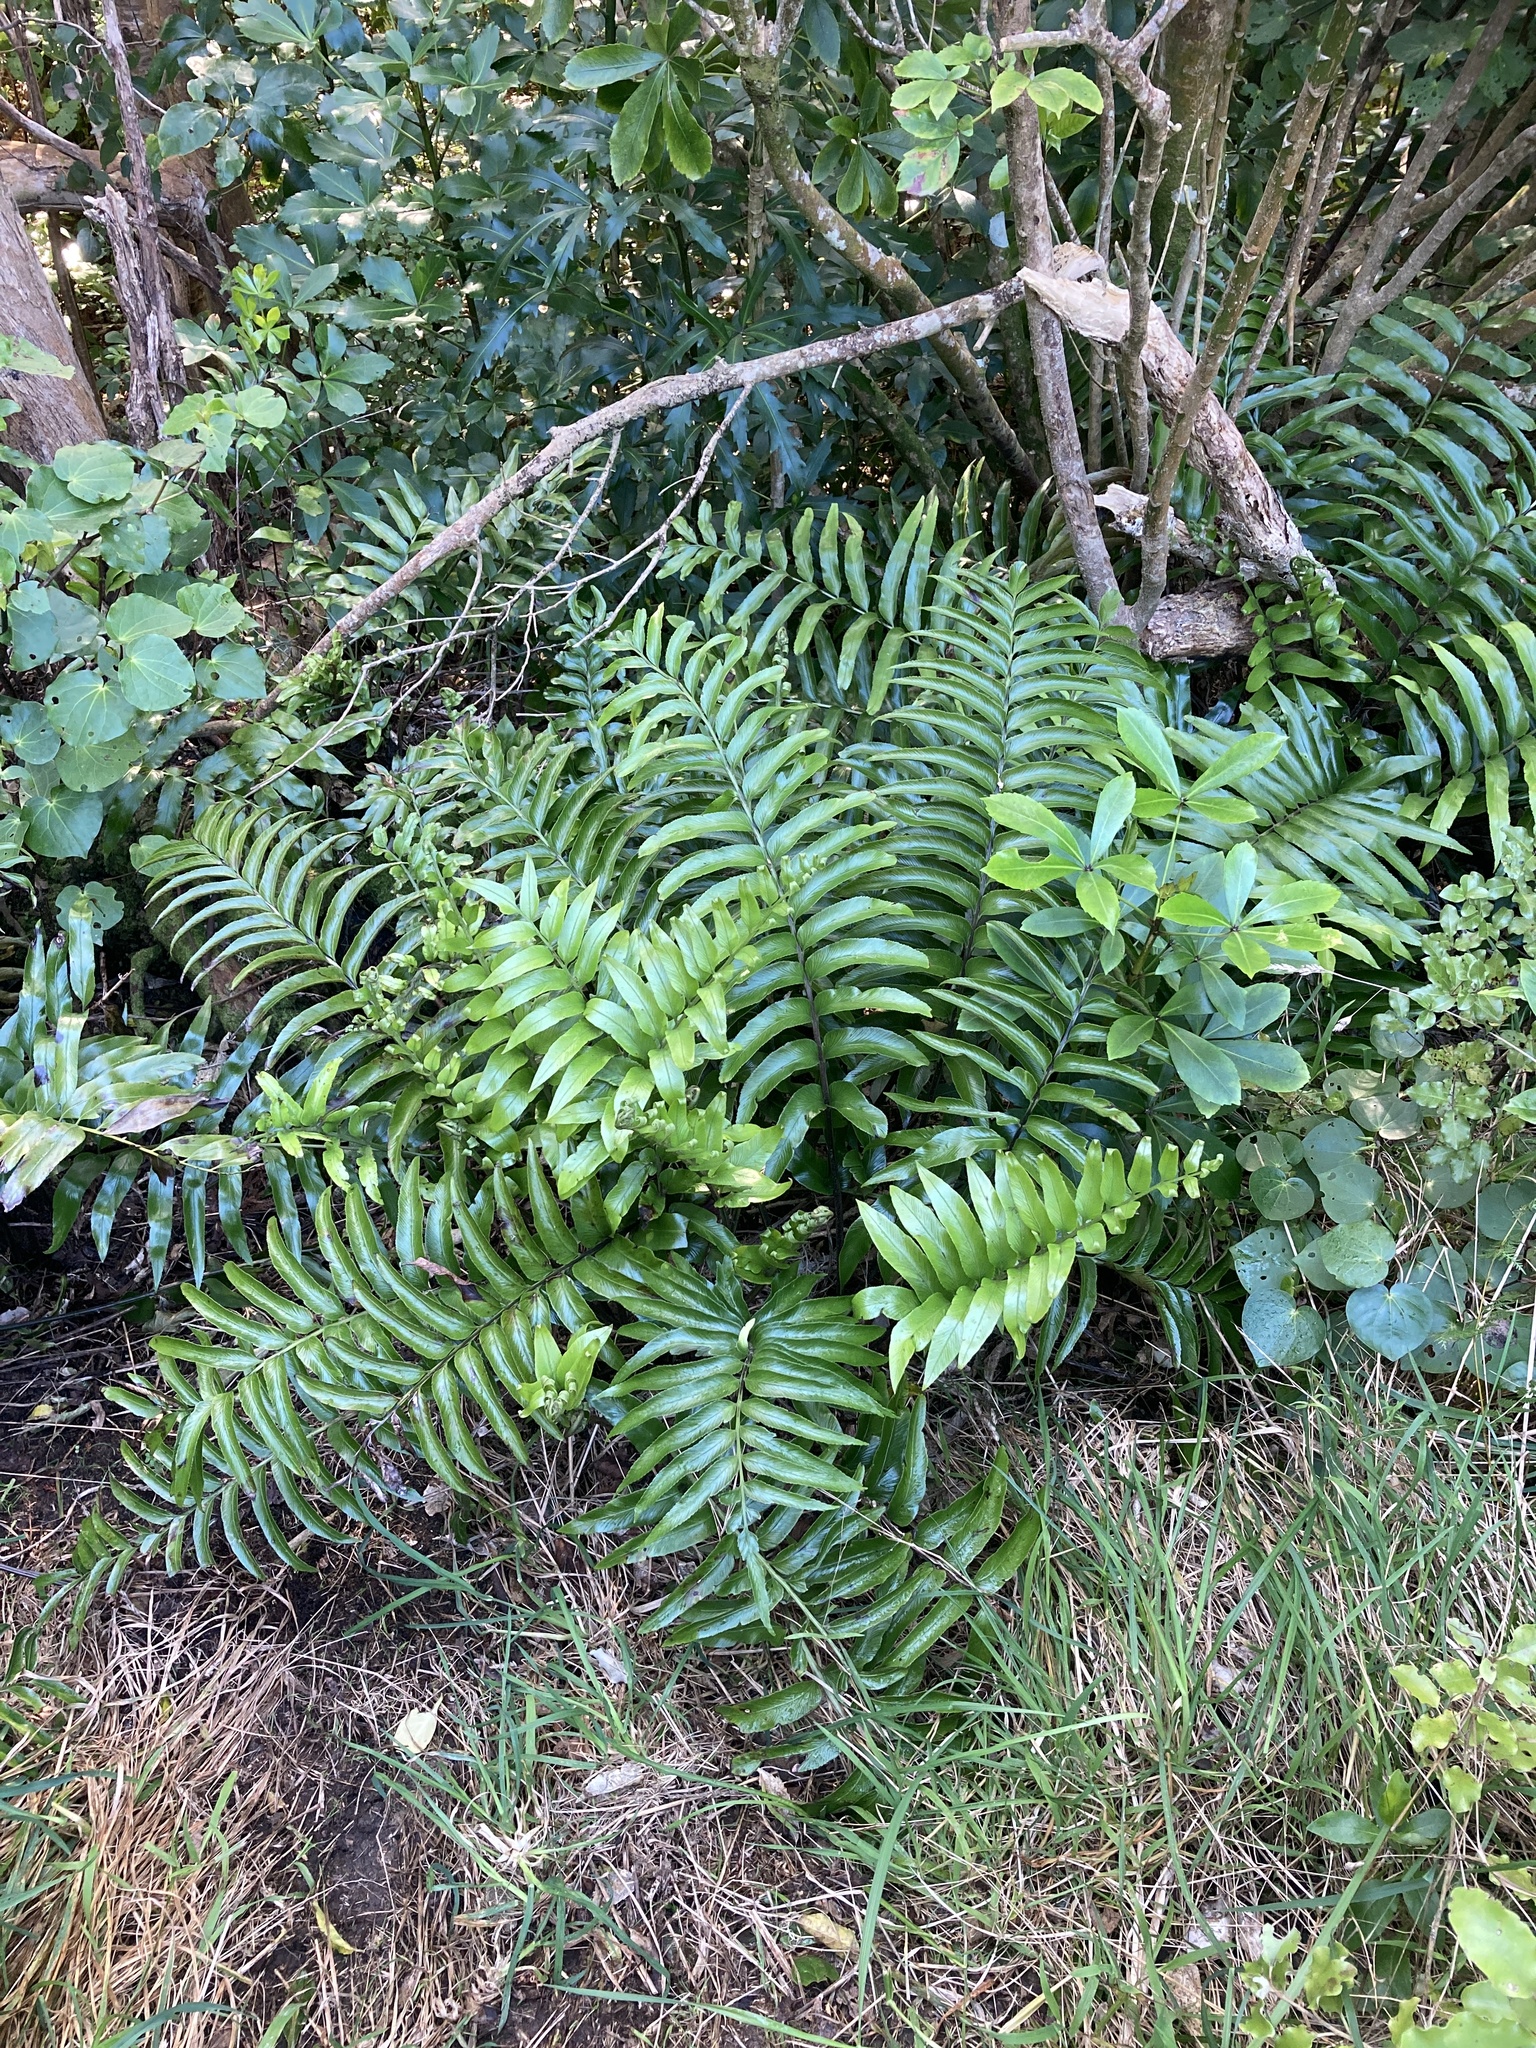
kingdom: Plantae
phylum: Tracheophyta
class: Polypodiopsida
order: Polypodiales
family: Aspleniaceae
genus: Asplenium
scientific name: Asplenium oblongifolium
